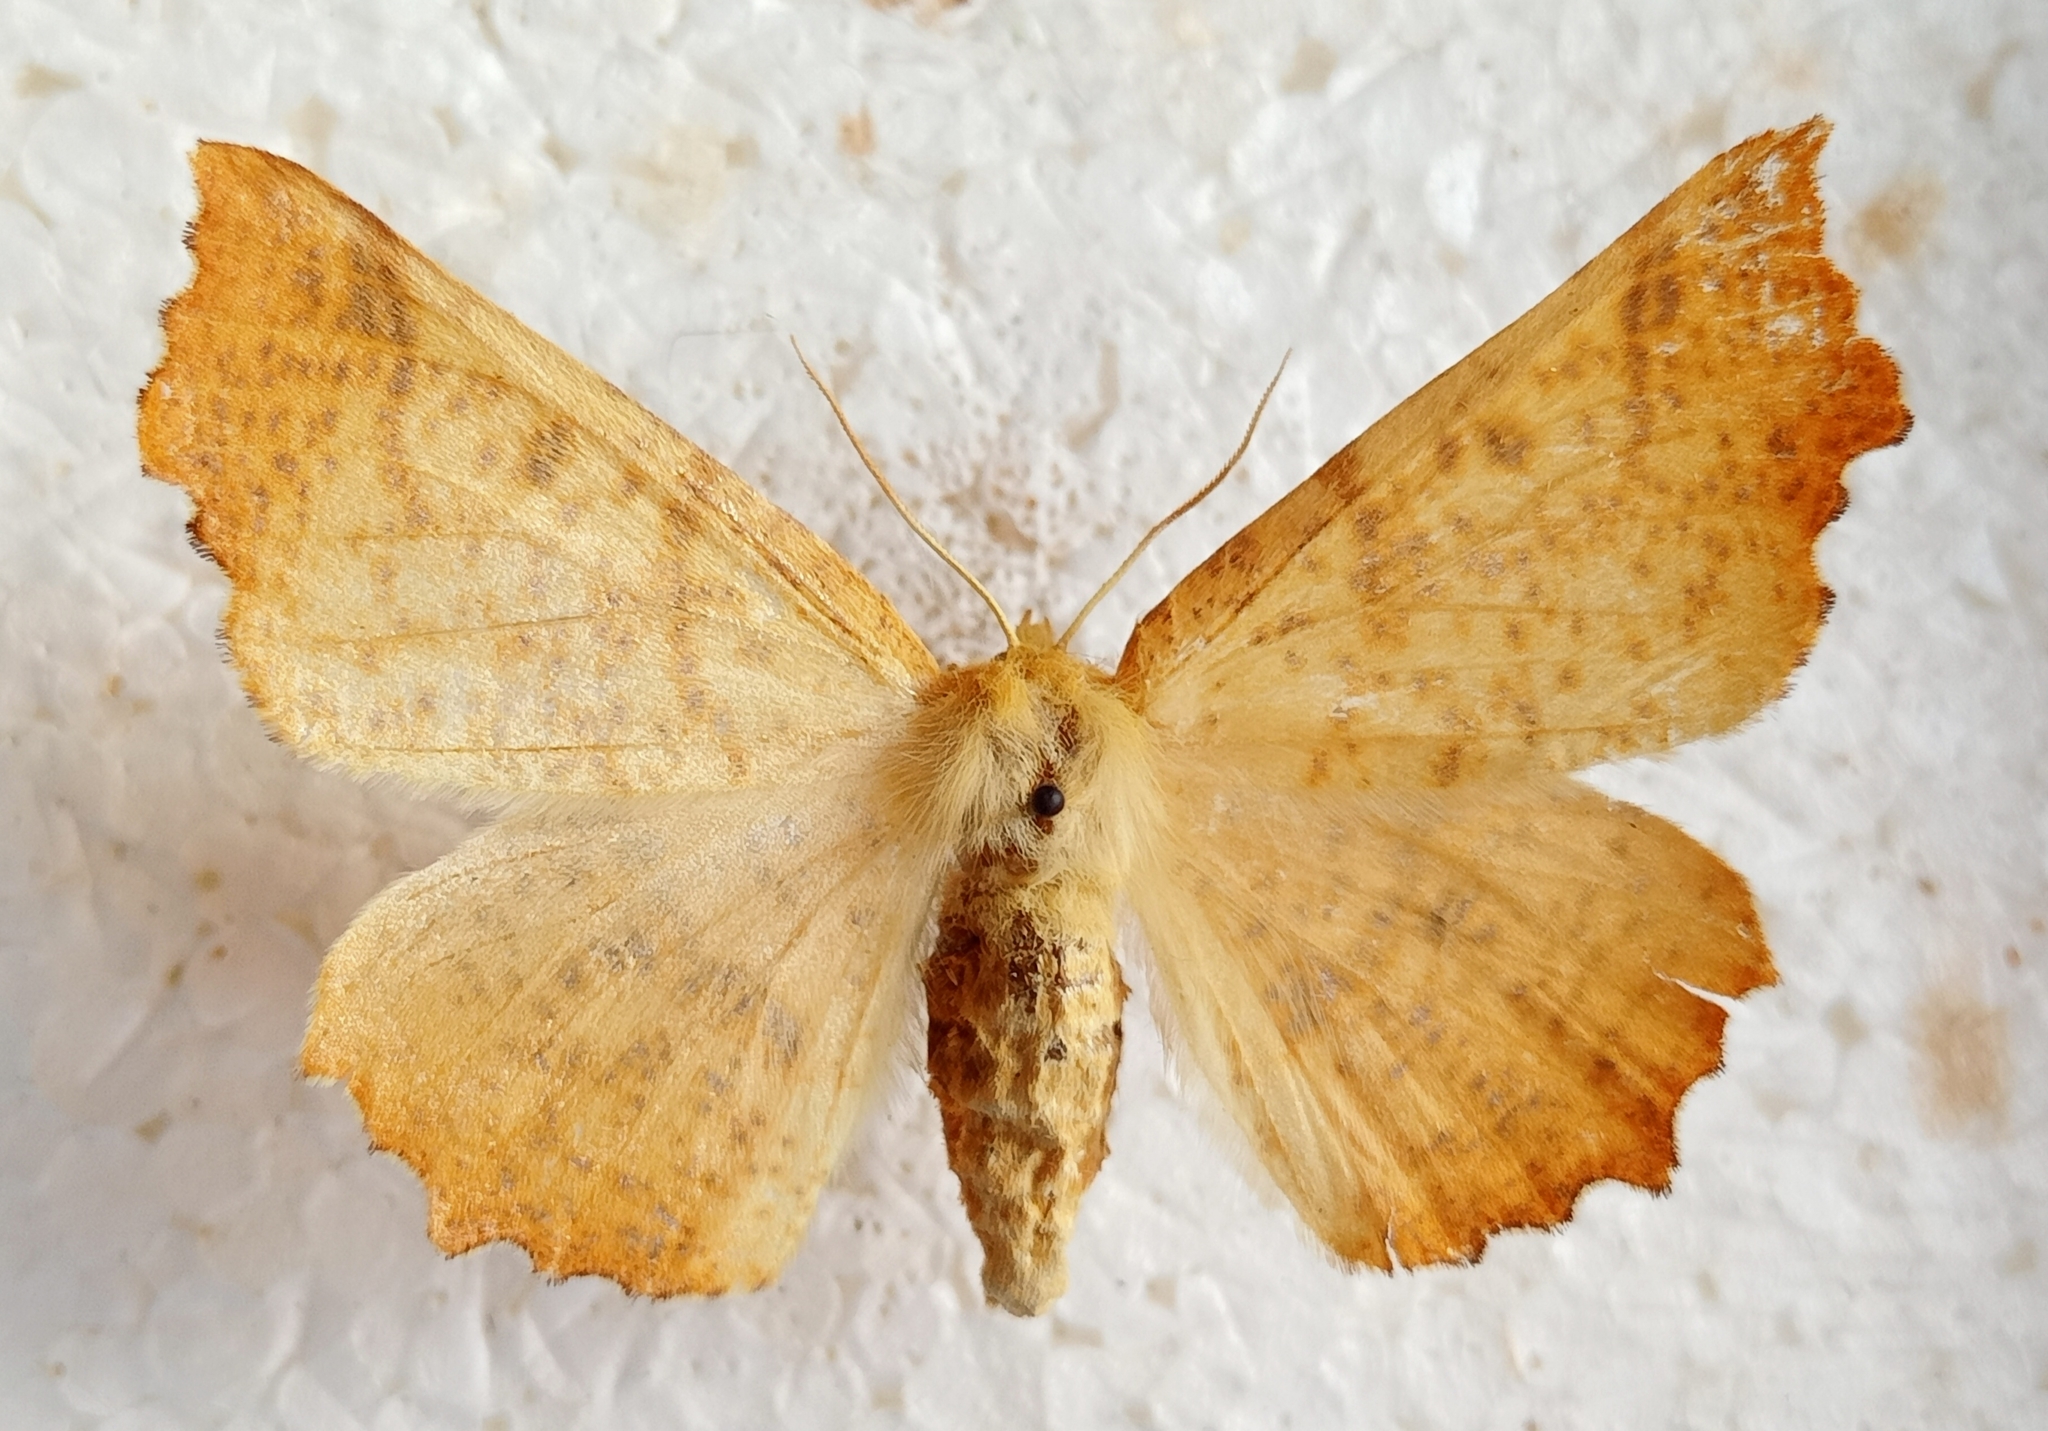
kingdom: Animalia
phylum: Arthropoda
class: Insecta
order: Lepidoptera
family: Geometridae
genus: Ennomos
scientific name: Ennomos autumnaria
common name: Large thorn
